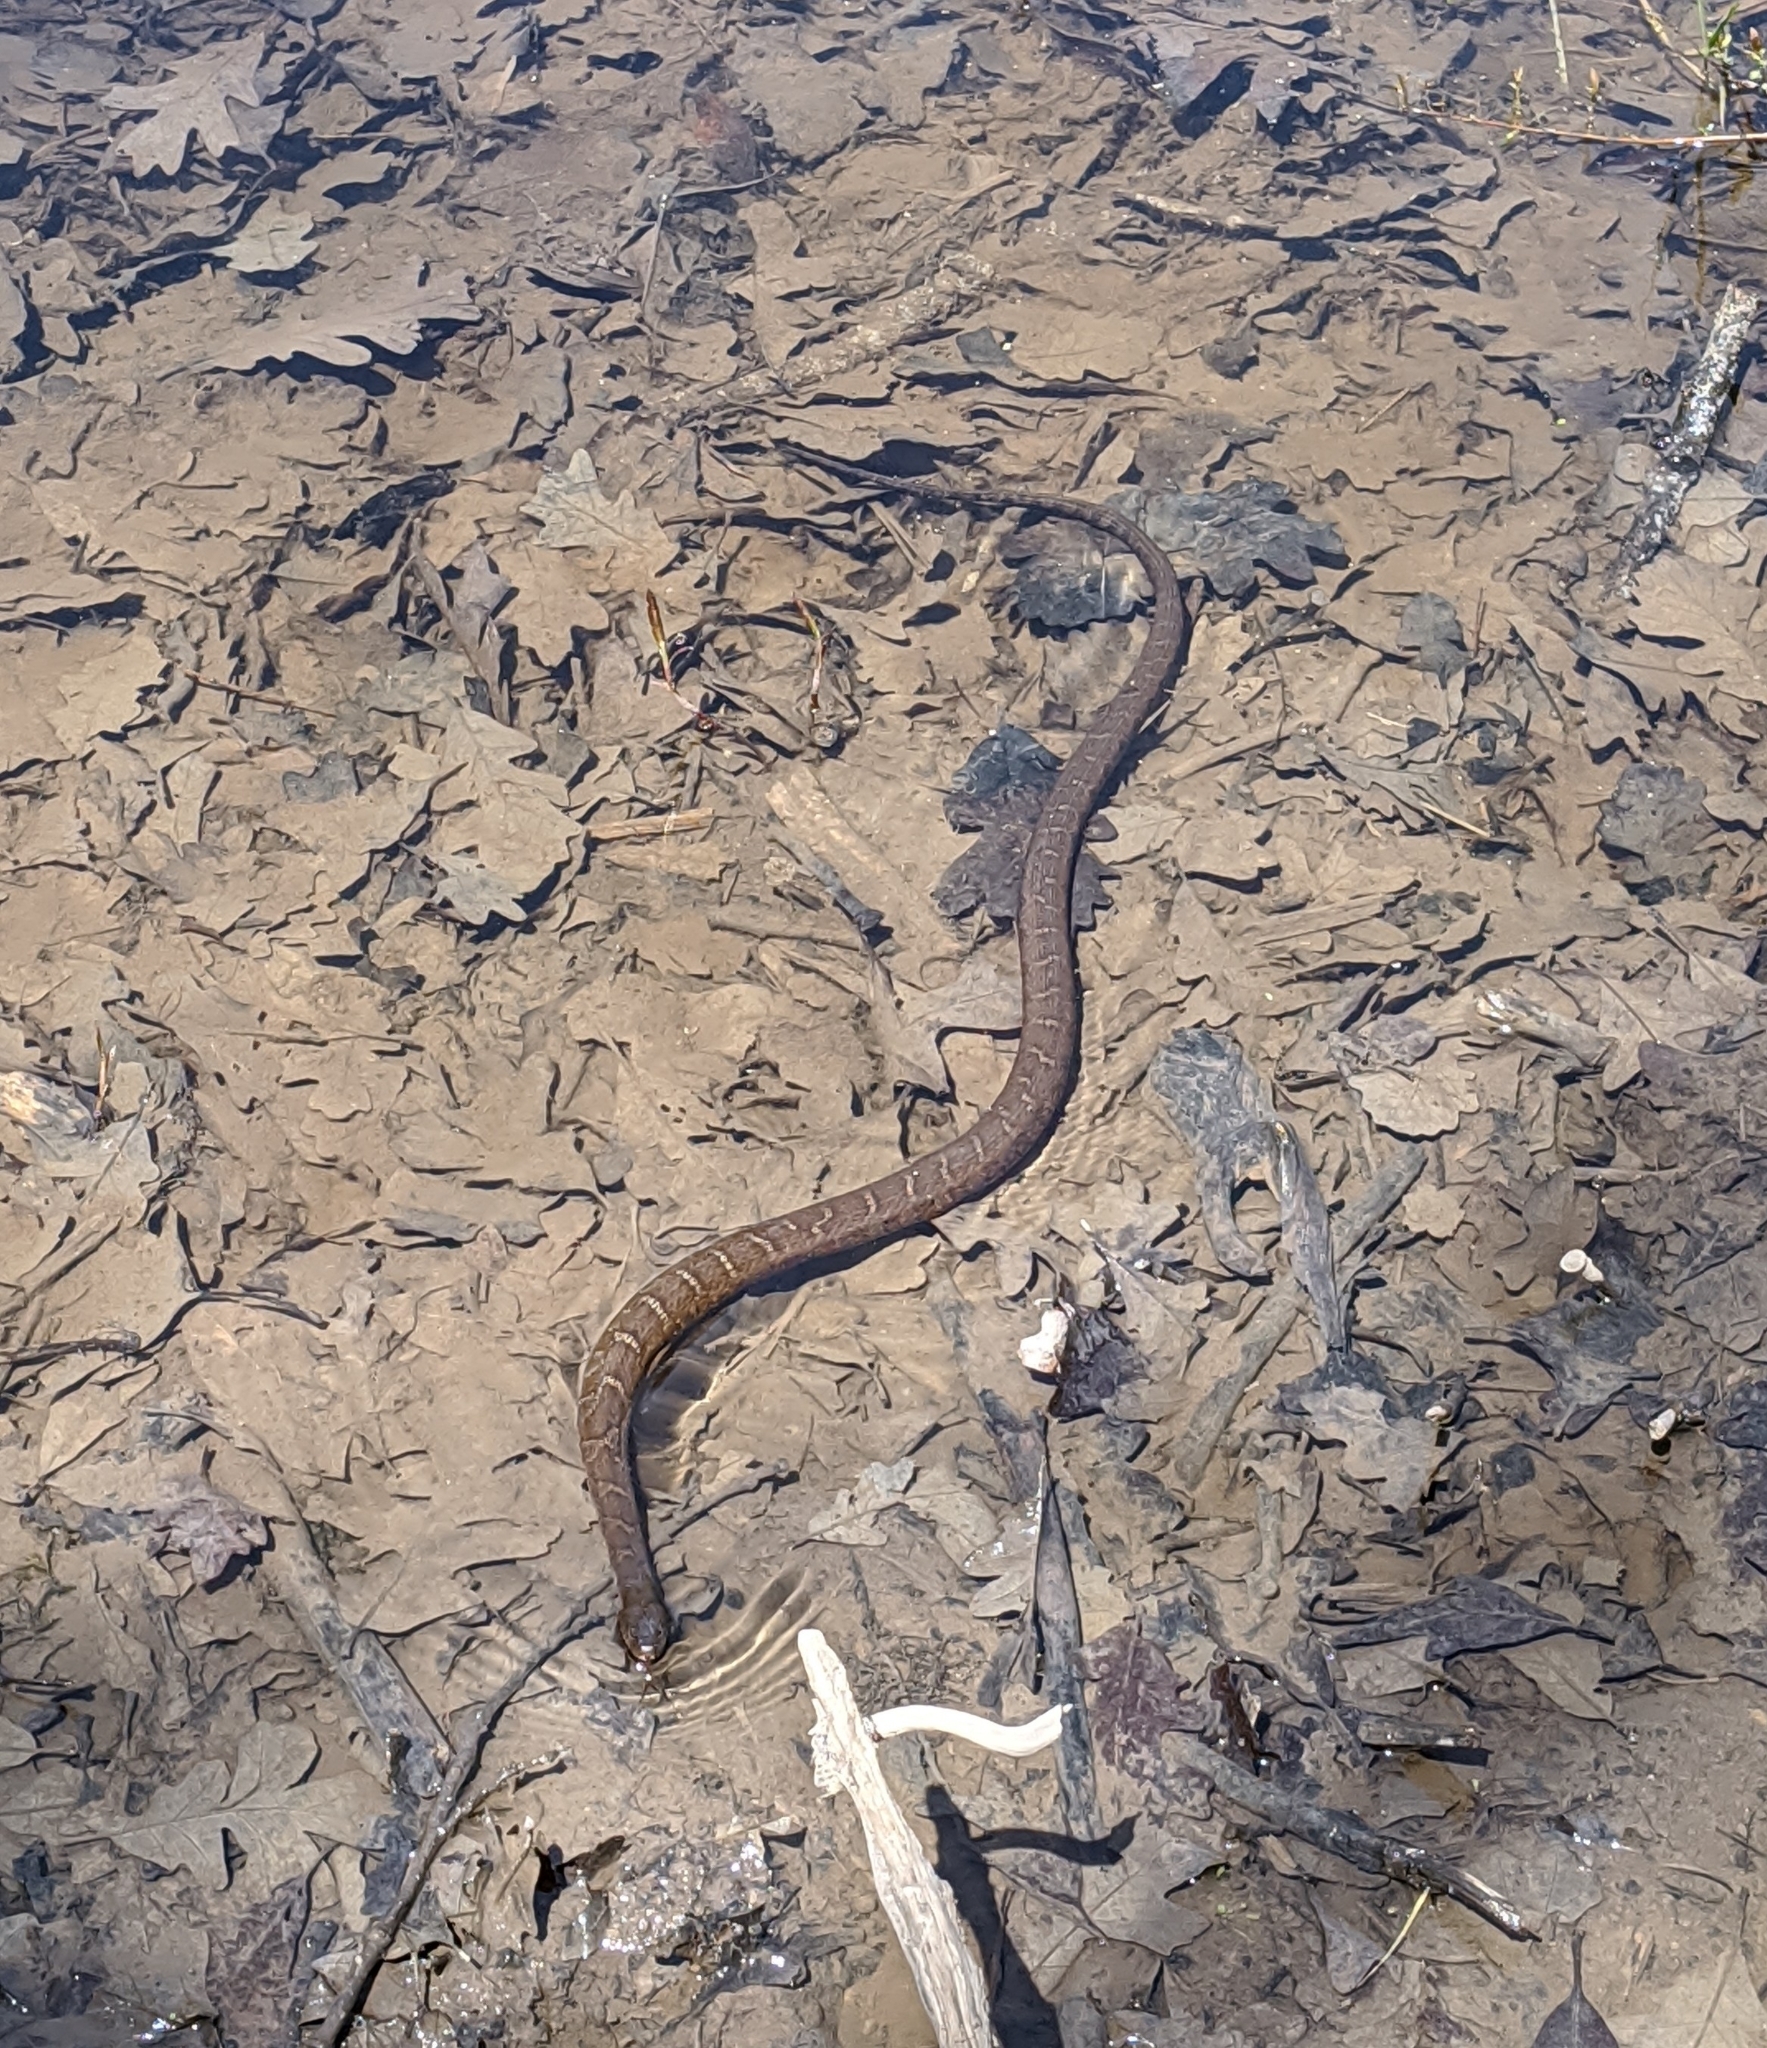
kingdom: Animalia
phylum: Chordata
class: Squamata
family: Colubridae
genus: Nerodia
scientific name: Nerodia sipedon
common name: Northern water snake
